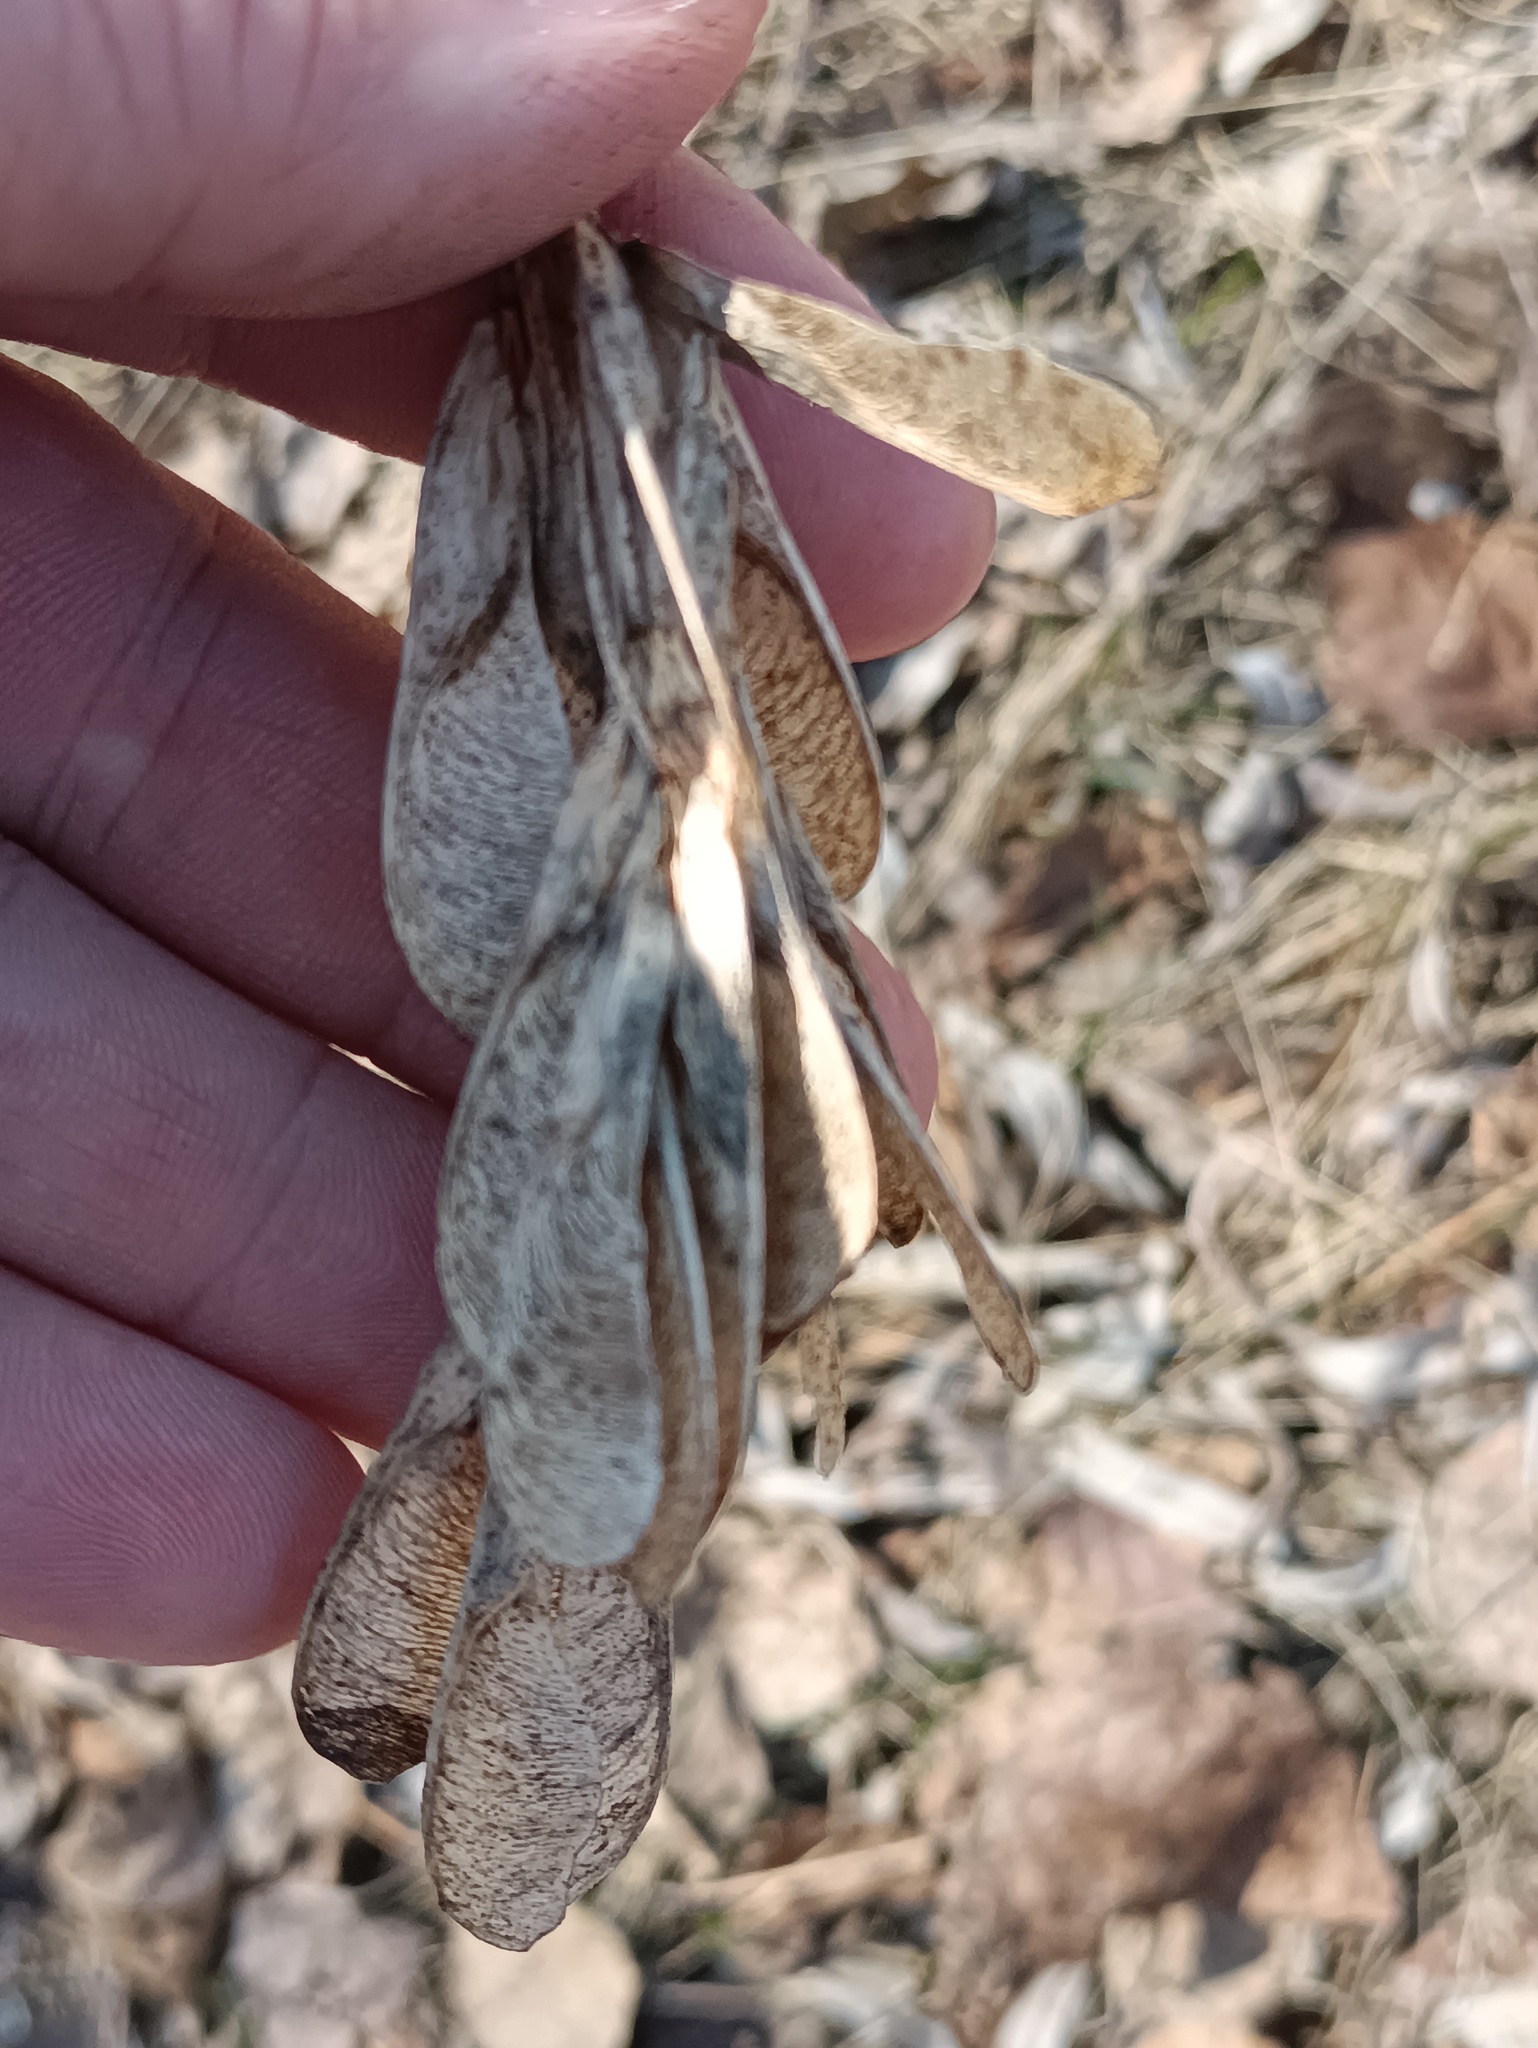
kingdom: Plantae
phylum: Tracheophyta
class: Magnoliopsida
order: Sapindales
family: Sapindaceae
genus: Acer
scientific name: Acer negundo
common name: Ashleaf maple
